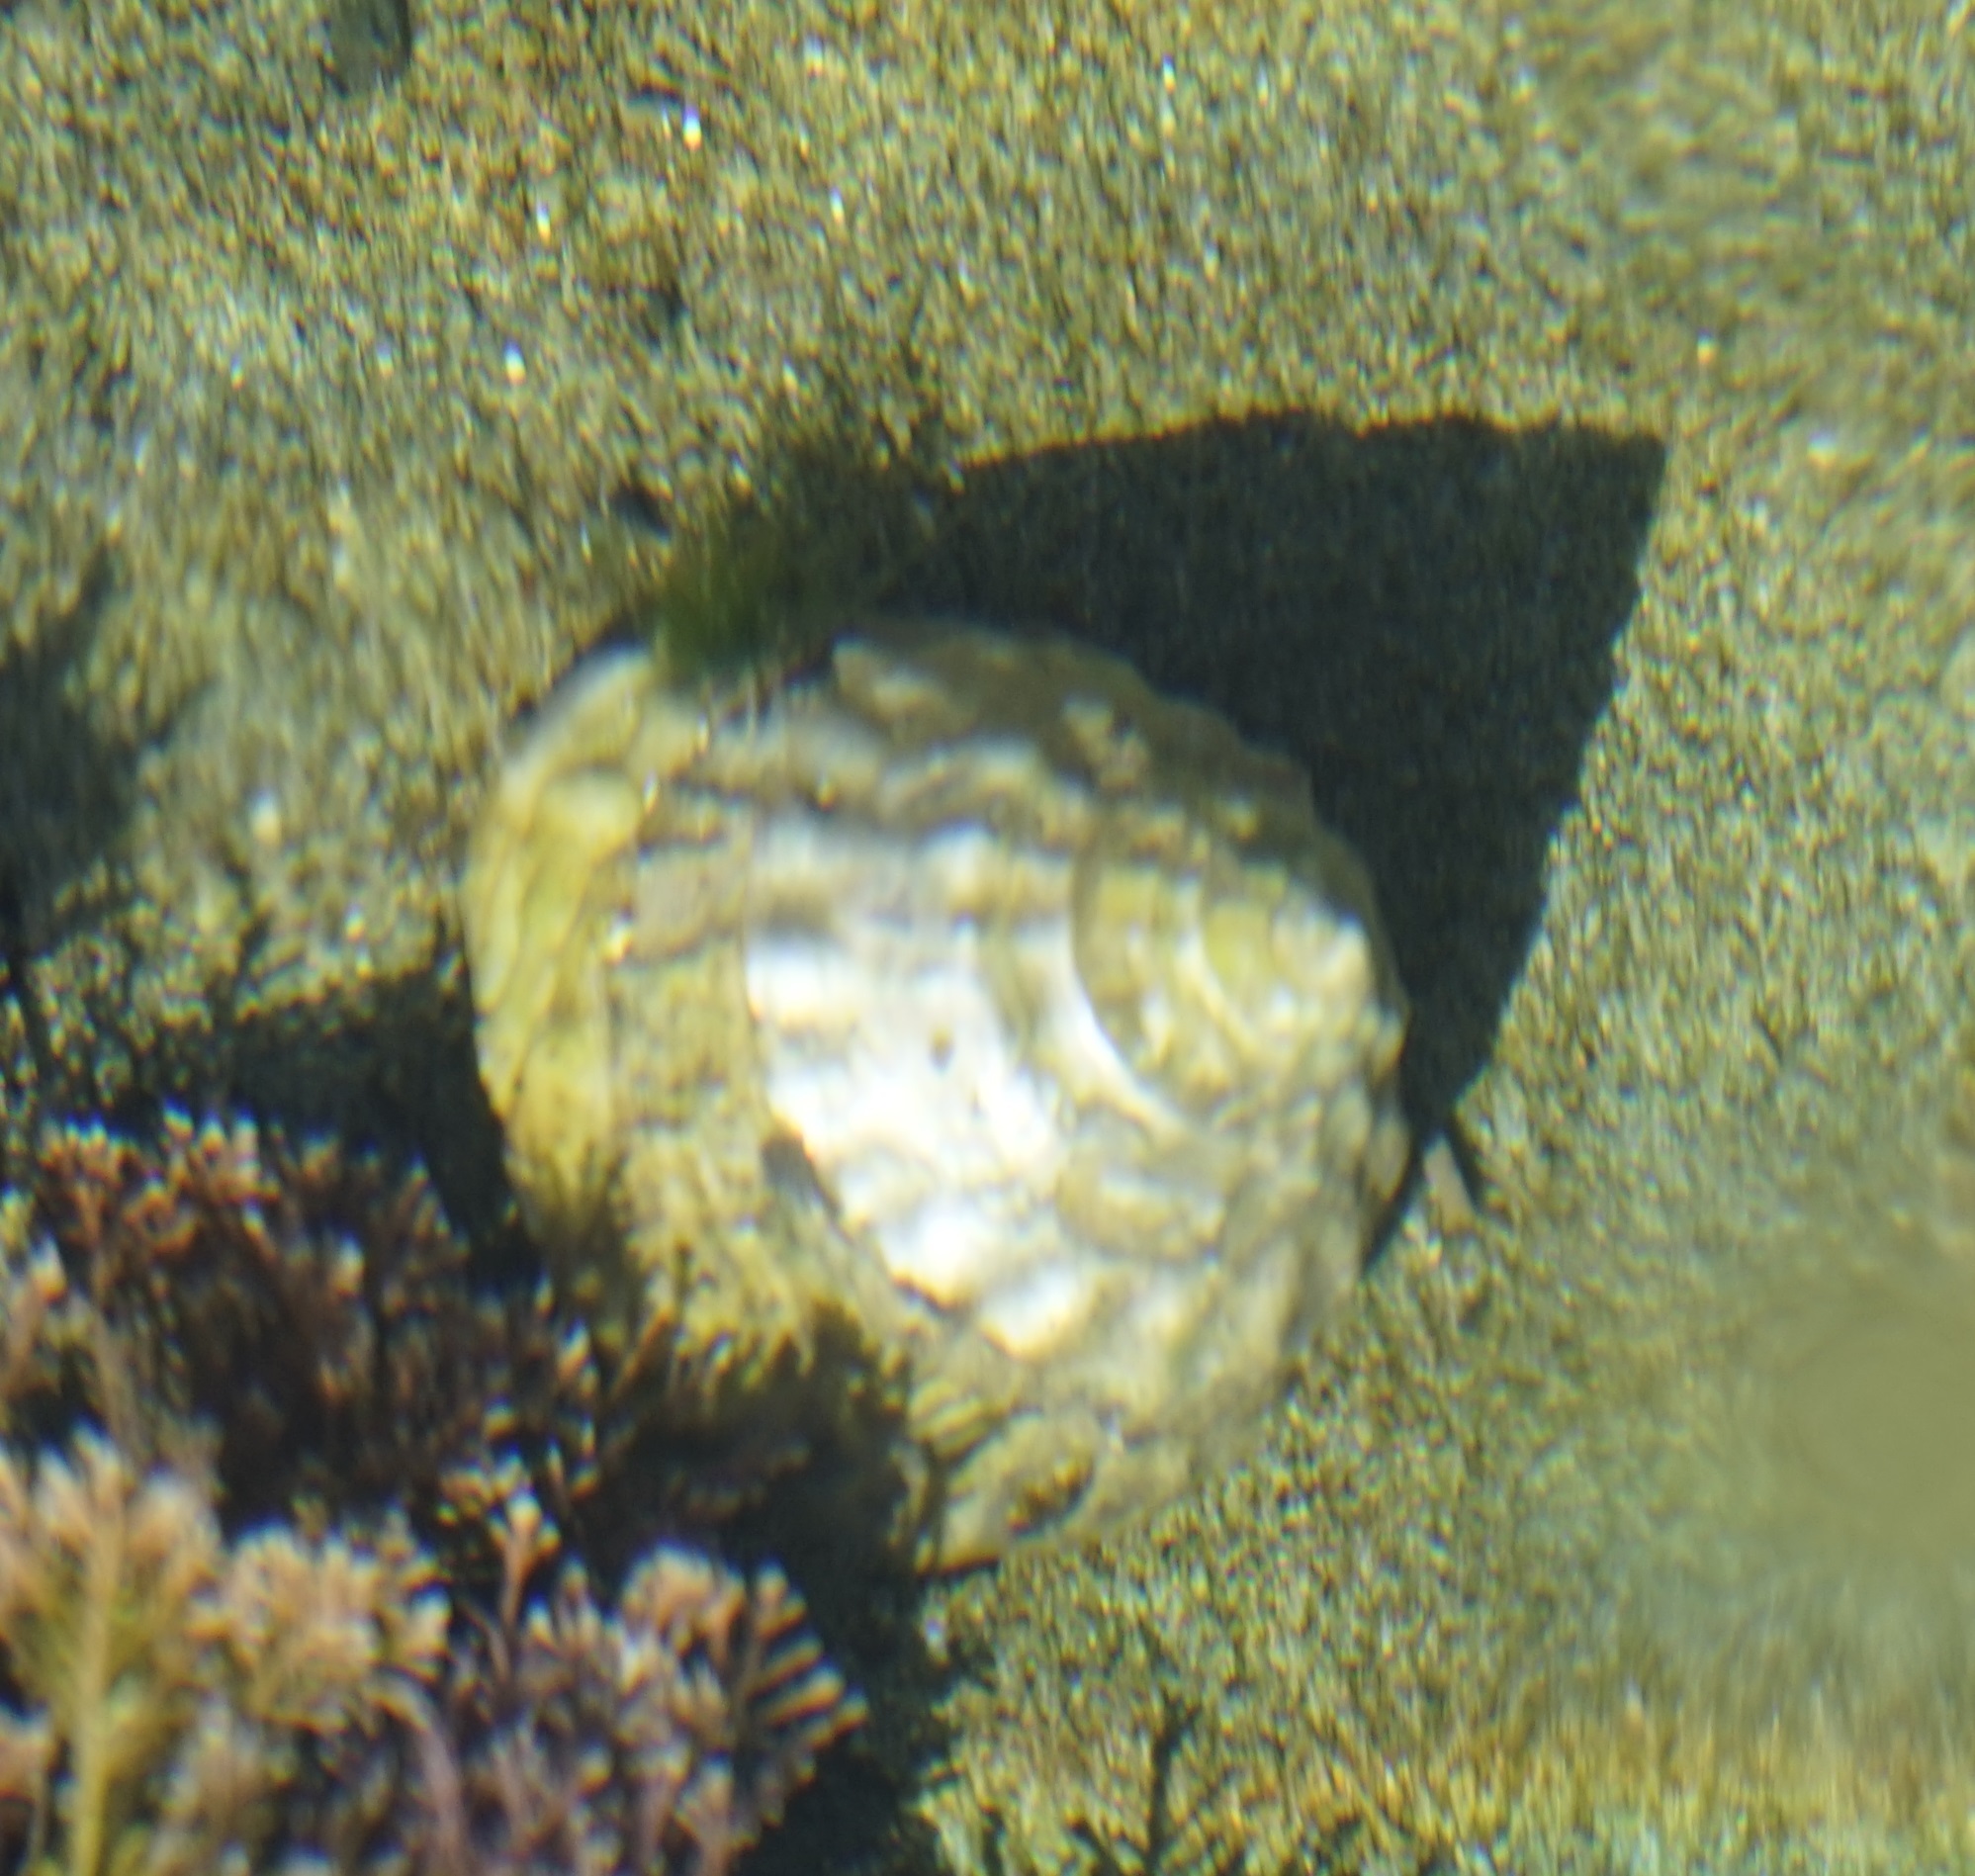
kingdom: Animalia
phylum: Mollusca
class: Gastropoda
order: Trochida
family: Turbinidae
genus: Astralium
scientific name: Astralium tentoriiforme
